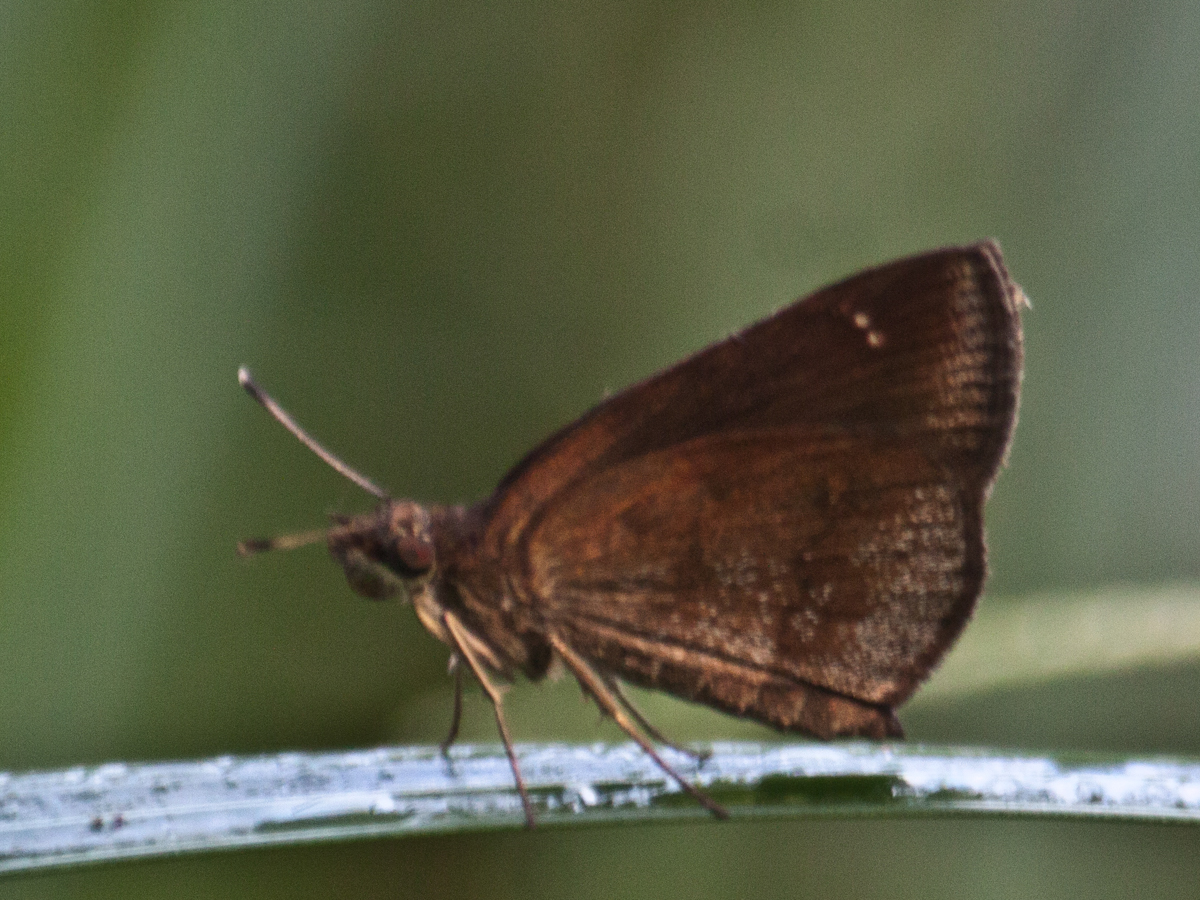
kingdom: Animalia
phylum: Arthropoda
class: Insecta
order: Lepidoptera
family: Hesperiidae
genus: Astictopterus
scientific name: Astictopterus jama
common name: Forest hopper
